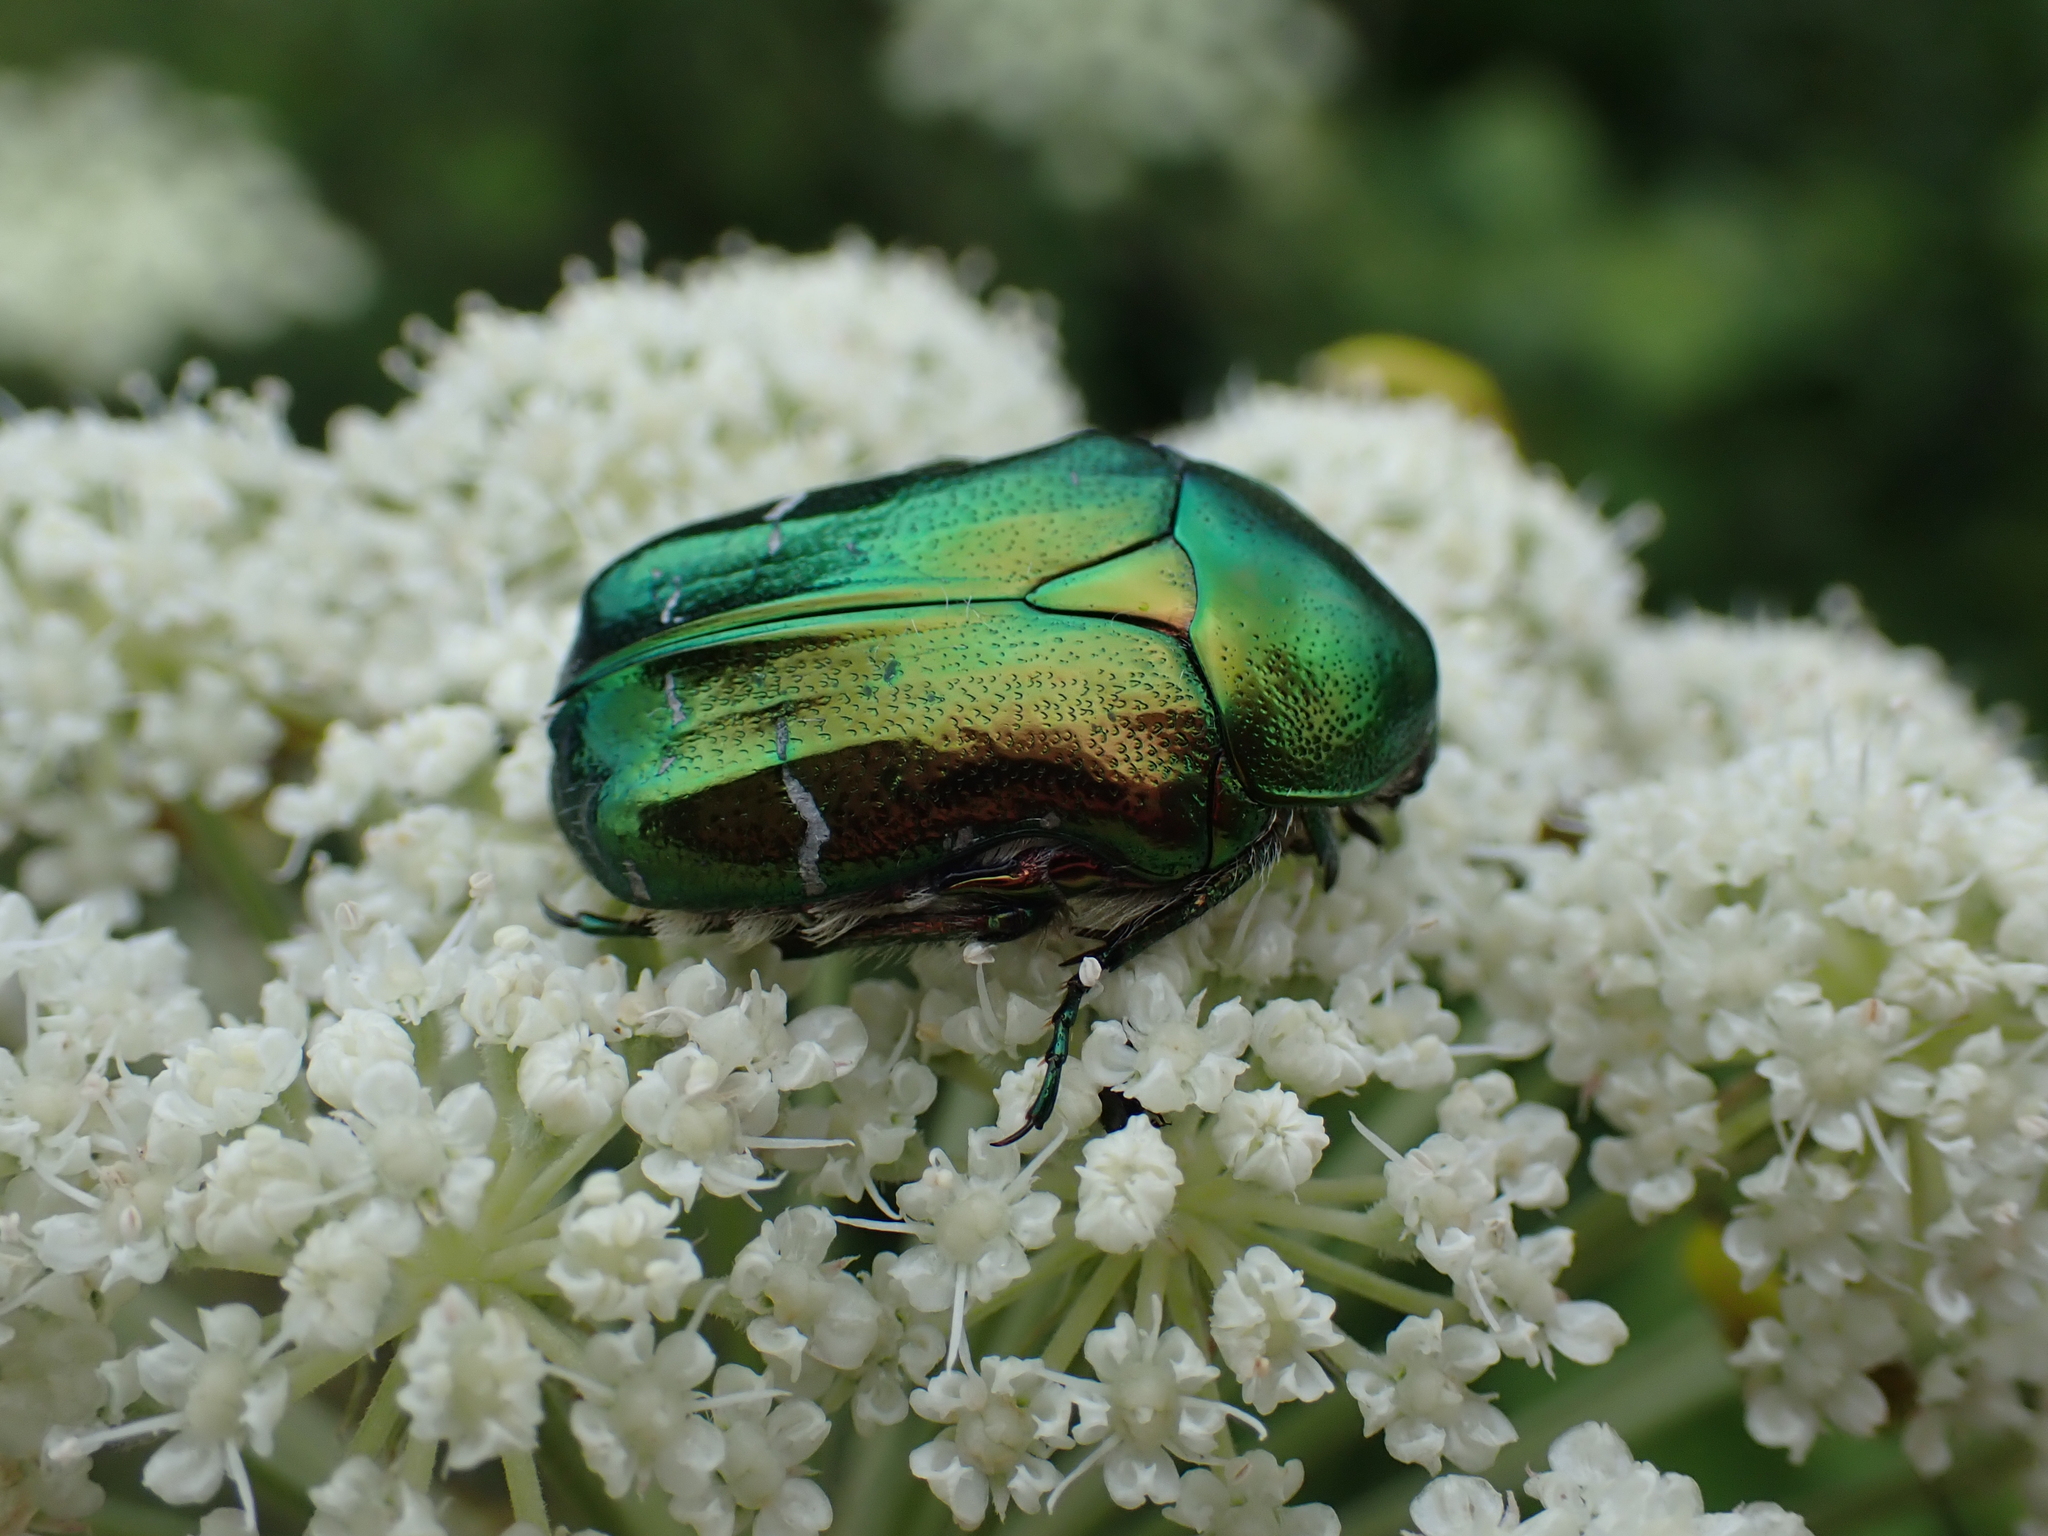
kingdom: Animalia
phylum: Arthropoda
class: Insecta
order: Coleoptera
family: Scarabaeidae
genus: Cetonia
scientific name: Cetonia aurata
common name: Rose chafer
